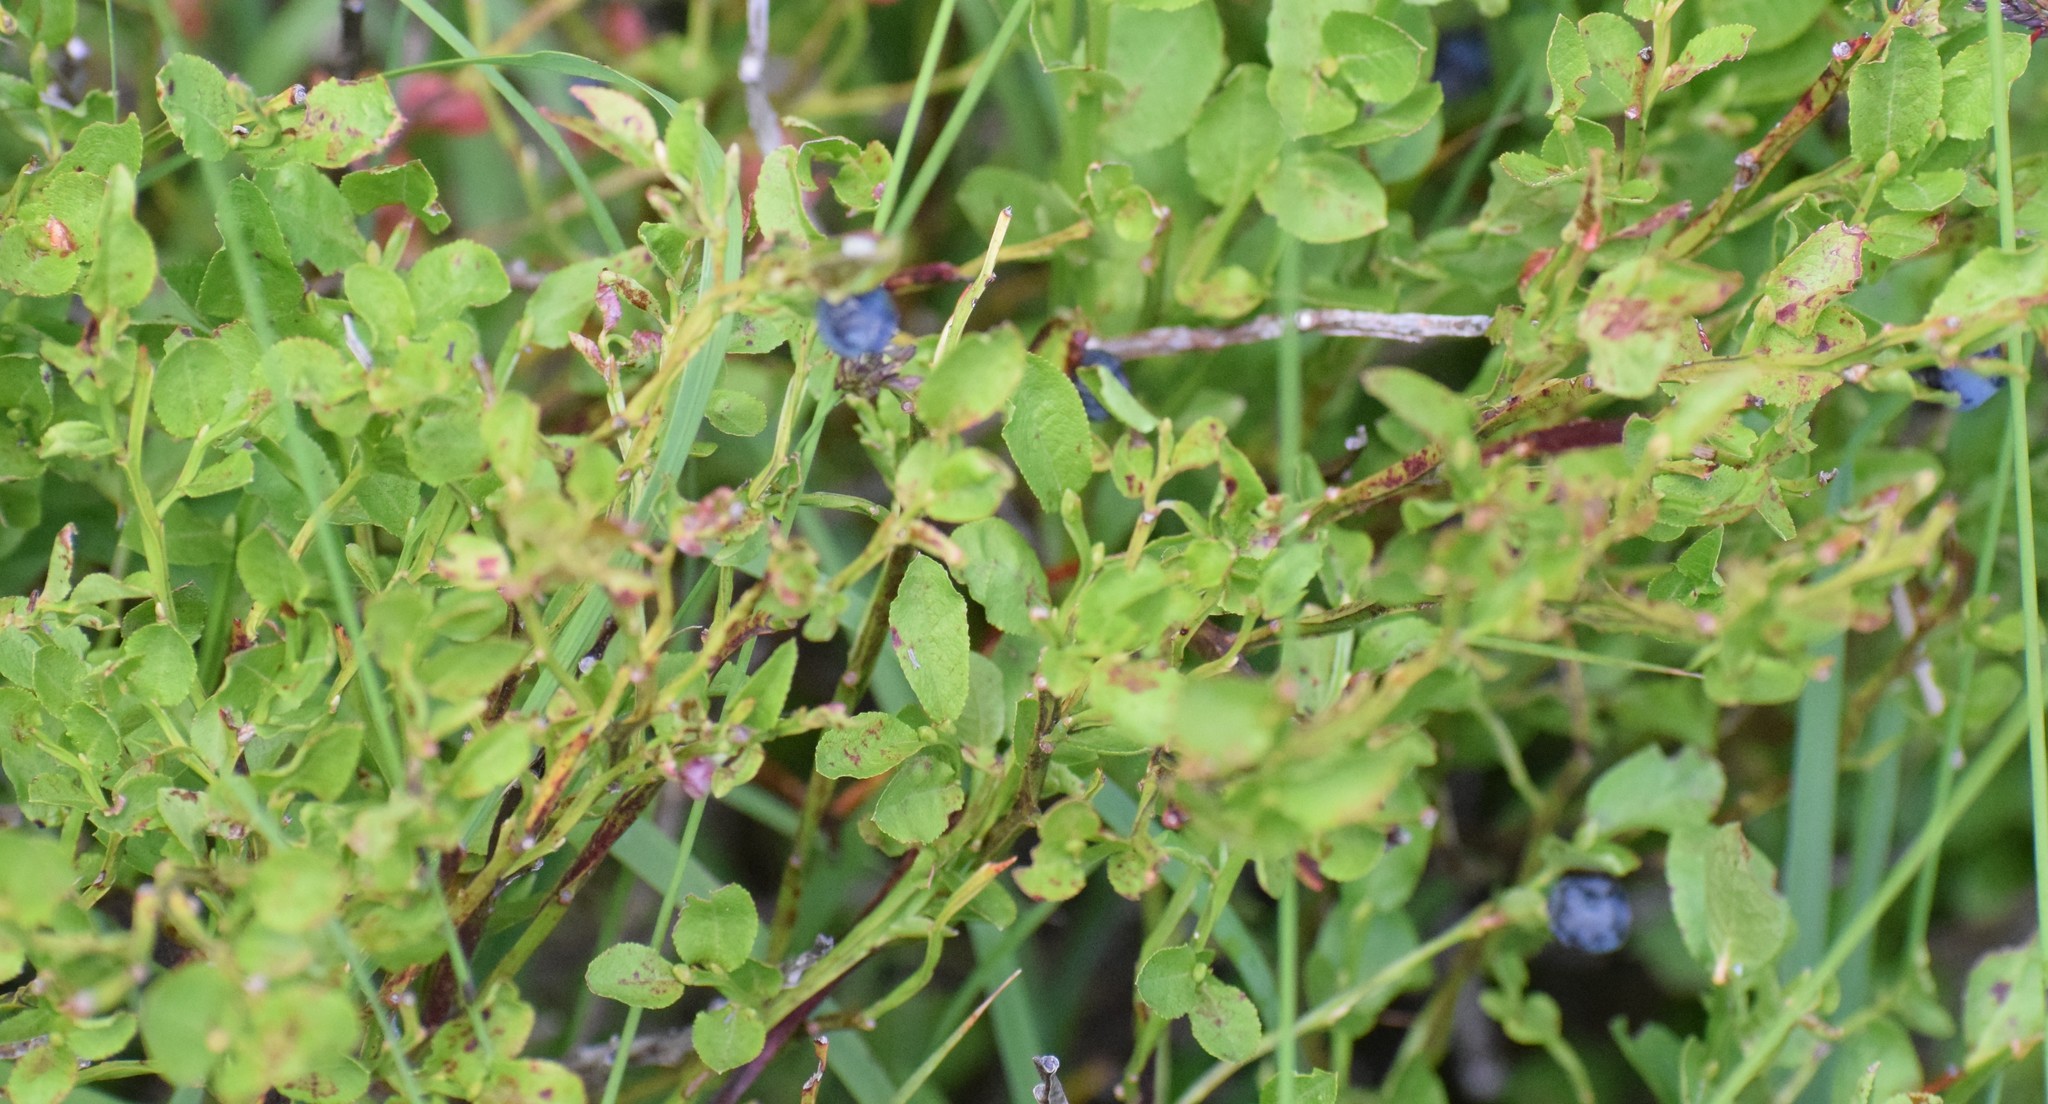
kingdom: Plantae
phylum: Tracheophyta
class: Magnoliopsida
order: Ericales
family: Ericaceae
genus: Vaccinium
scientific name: Vaccinium myrtillus
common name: Bilberry
